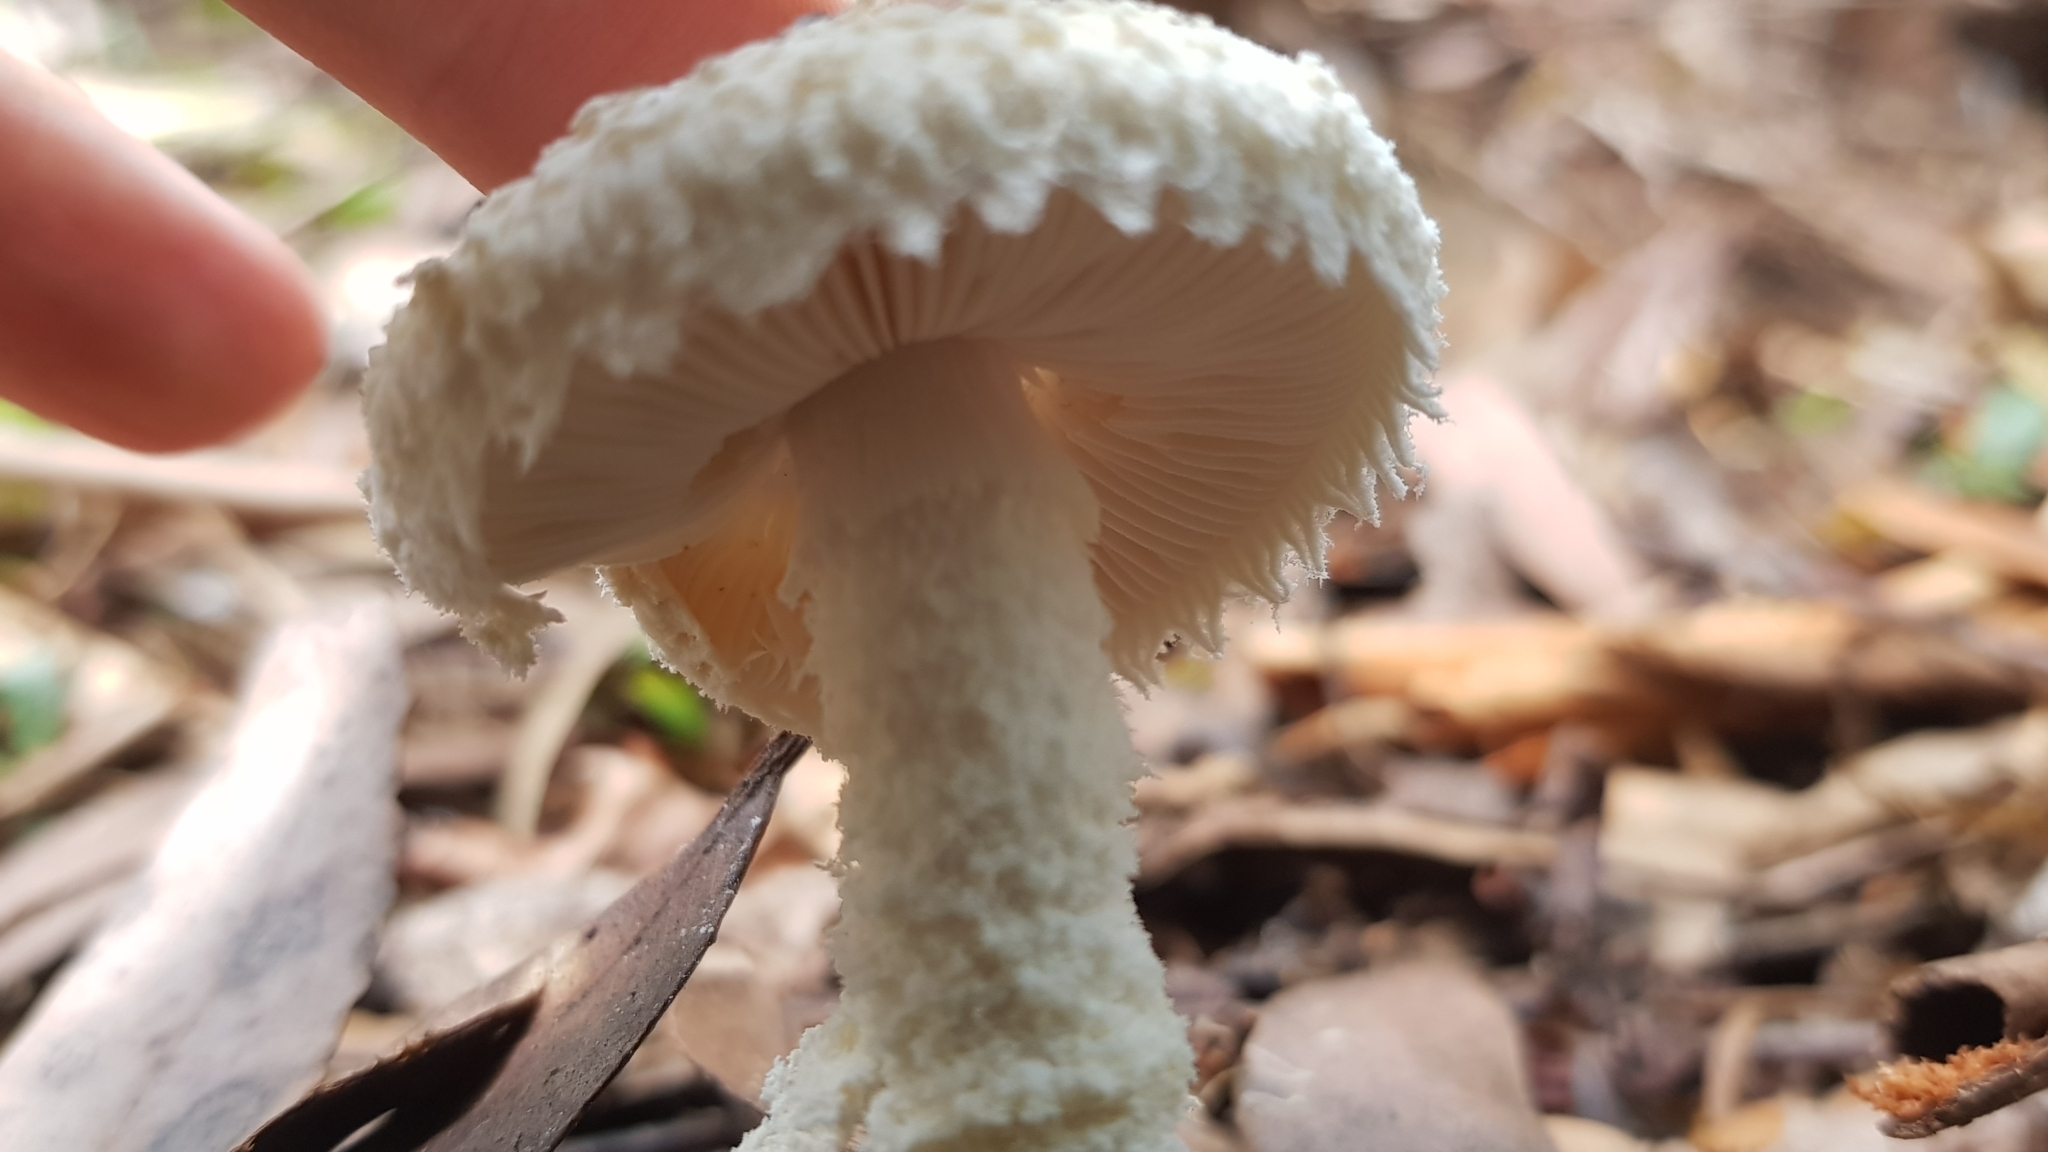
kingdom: Fungi
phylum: Basidiomycota
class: Agaricomycetes
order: Agaricales
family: Amanitaceae
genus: Amanita
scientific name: Amanita farinacea
